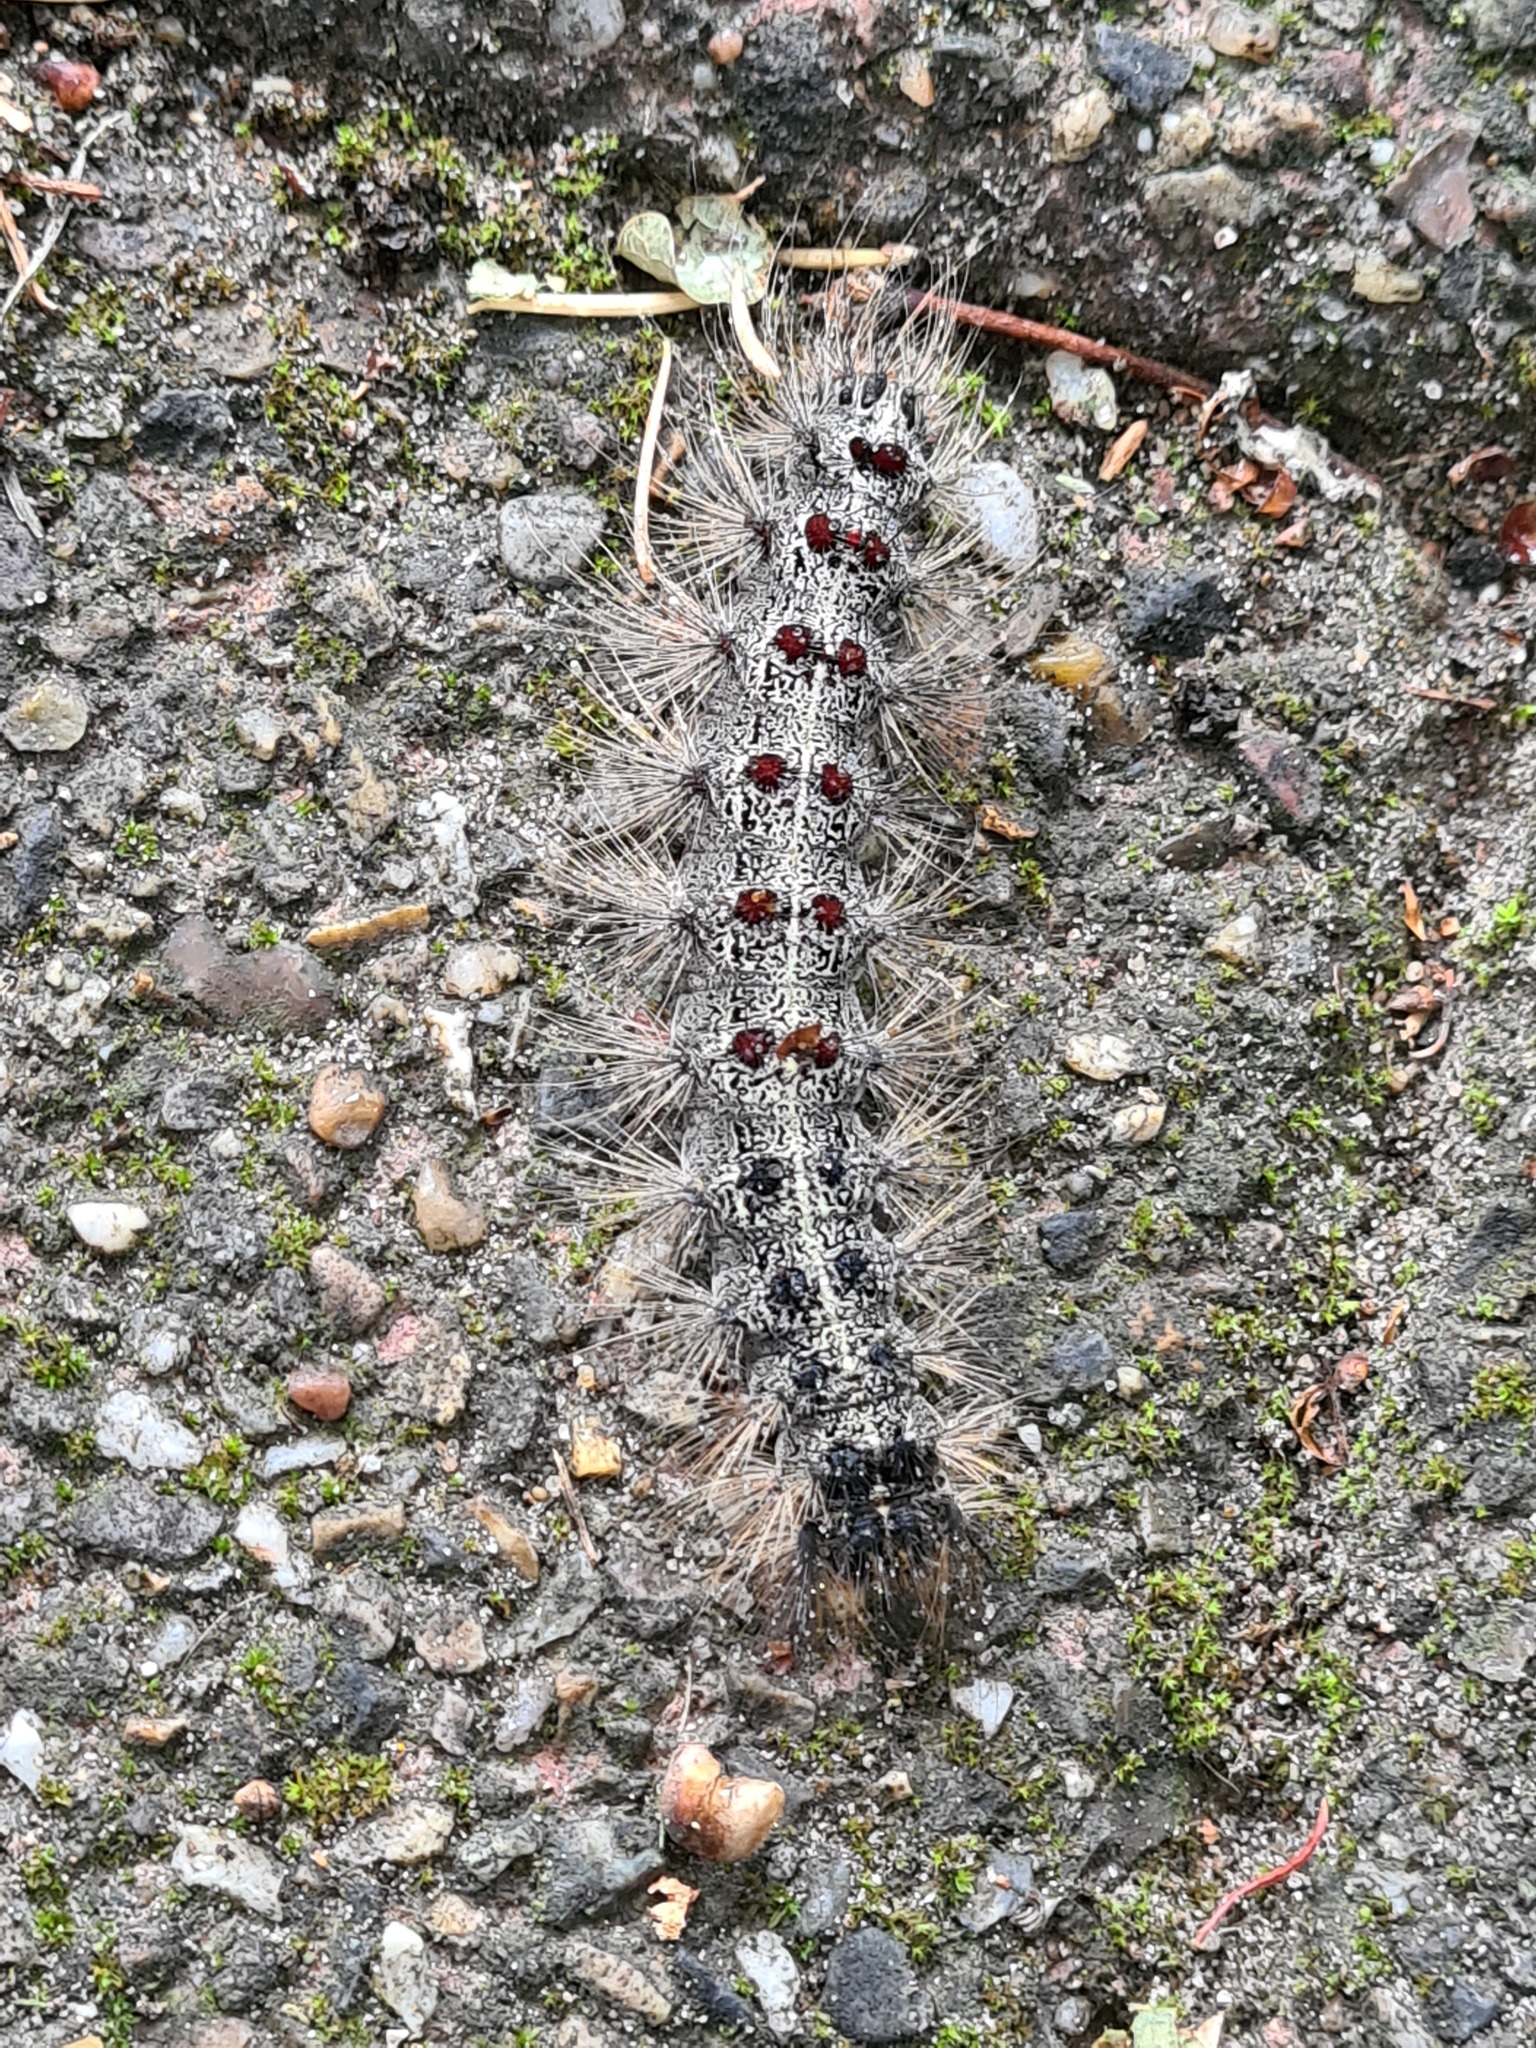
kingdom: Animalia
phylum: Arthropoda
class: Insecta
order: Lepidoptera
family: Erebidae
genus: Lymantria
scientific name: Lymantria dispar
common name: Gypsy moth
